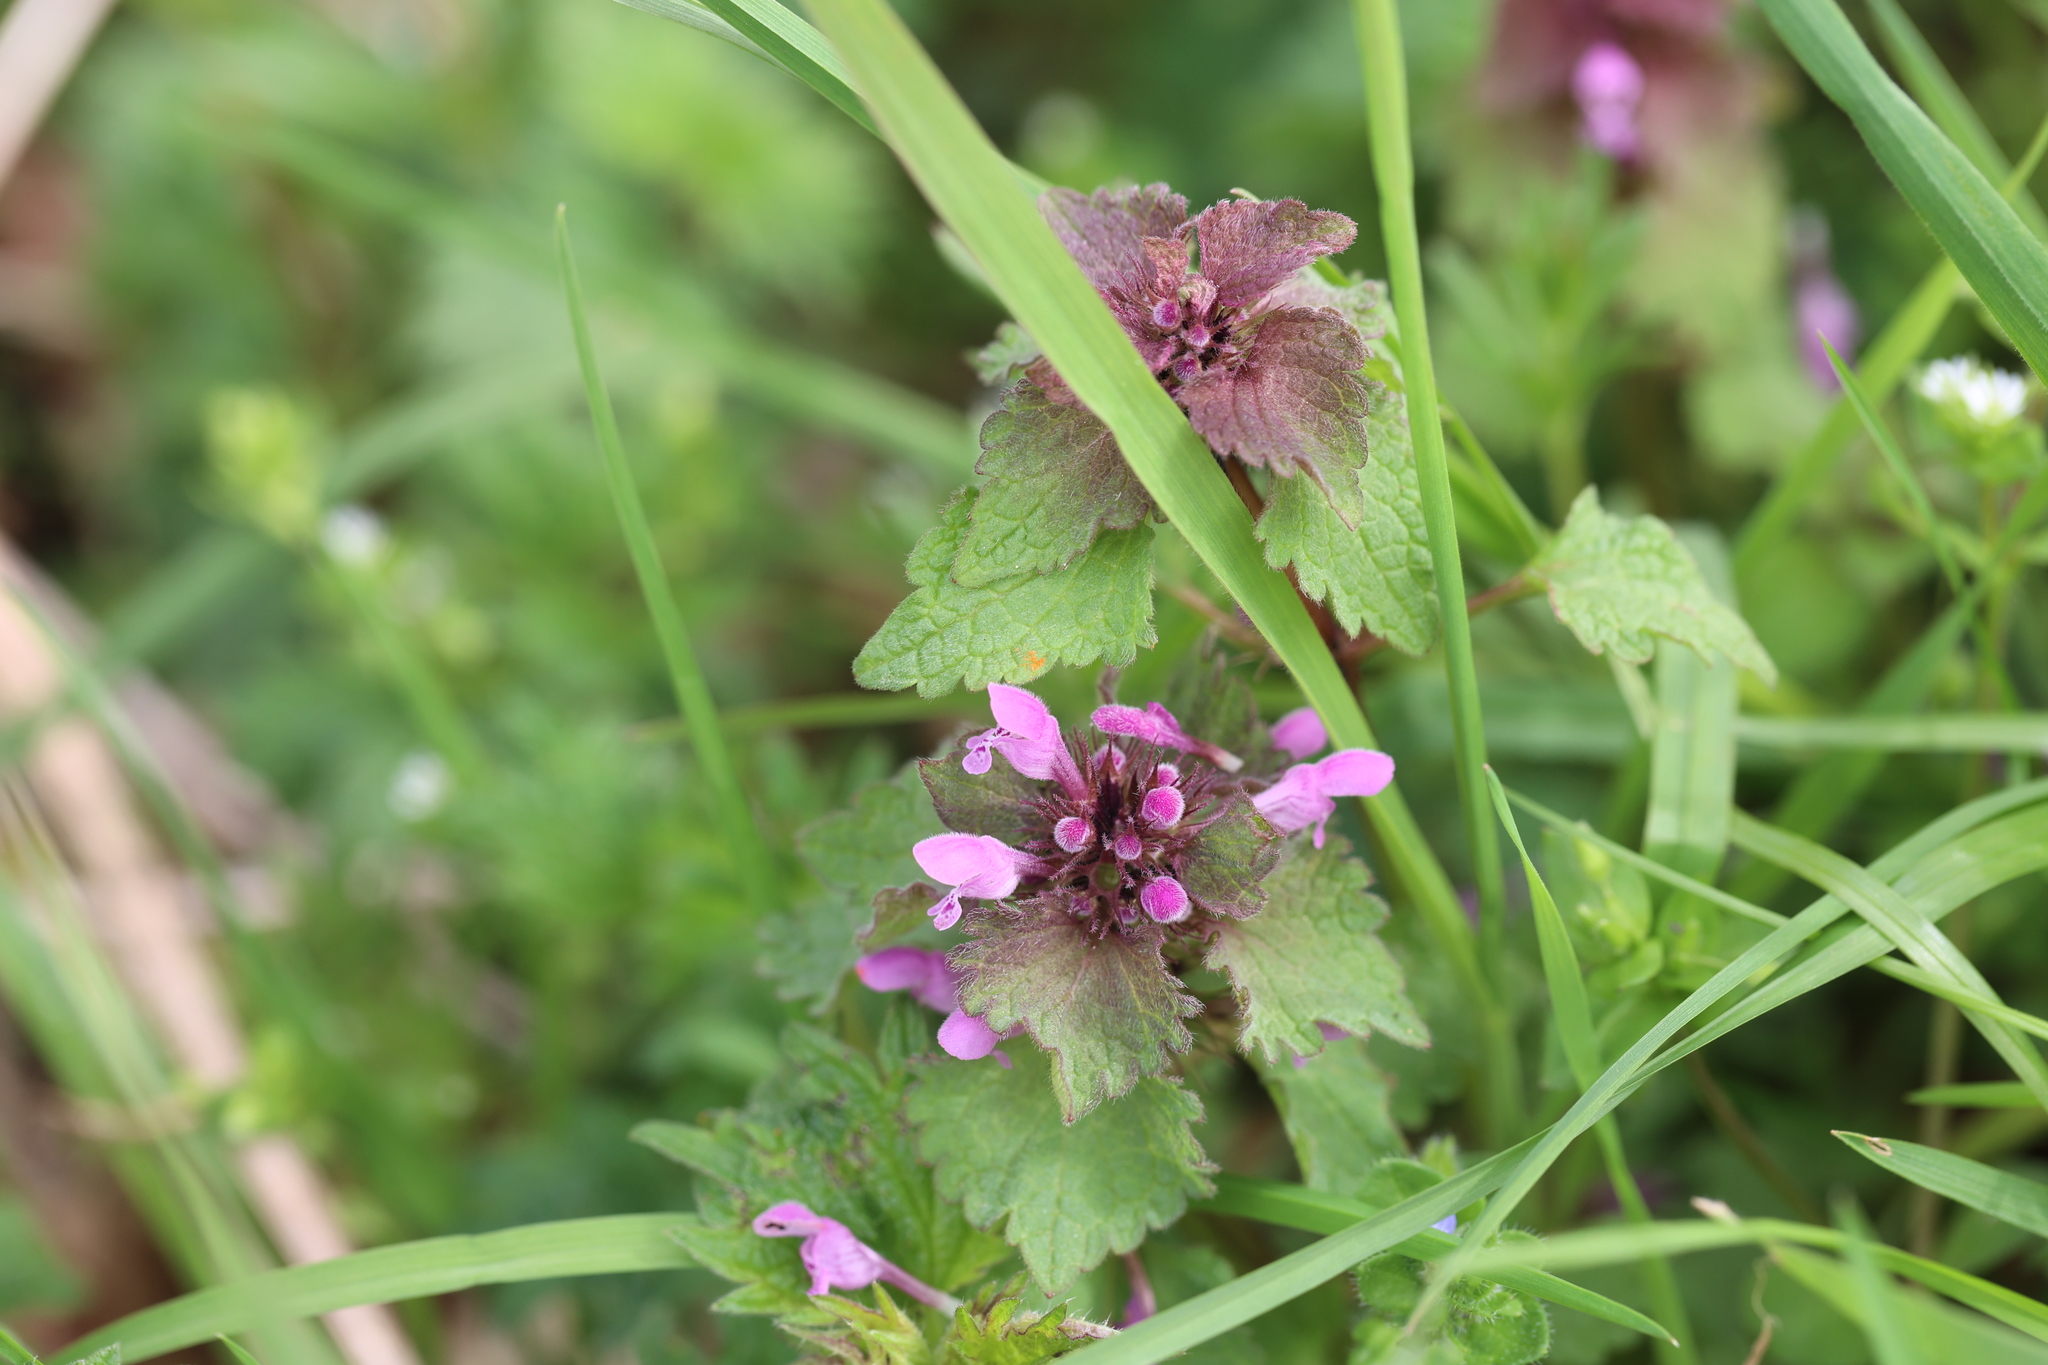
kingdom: Plantae
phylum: Tracheophyta
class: Magnoliopsida
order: Lamiales
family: Lamiaceae
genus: Lamium
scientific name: Lamium purpureum
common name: Red dead-nettle
